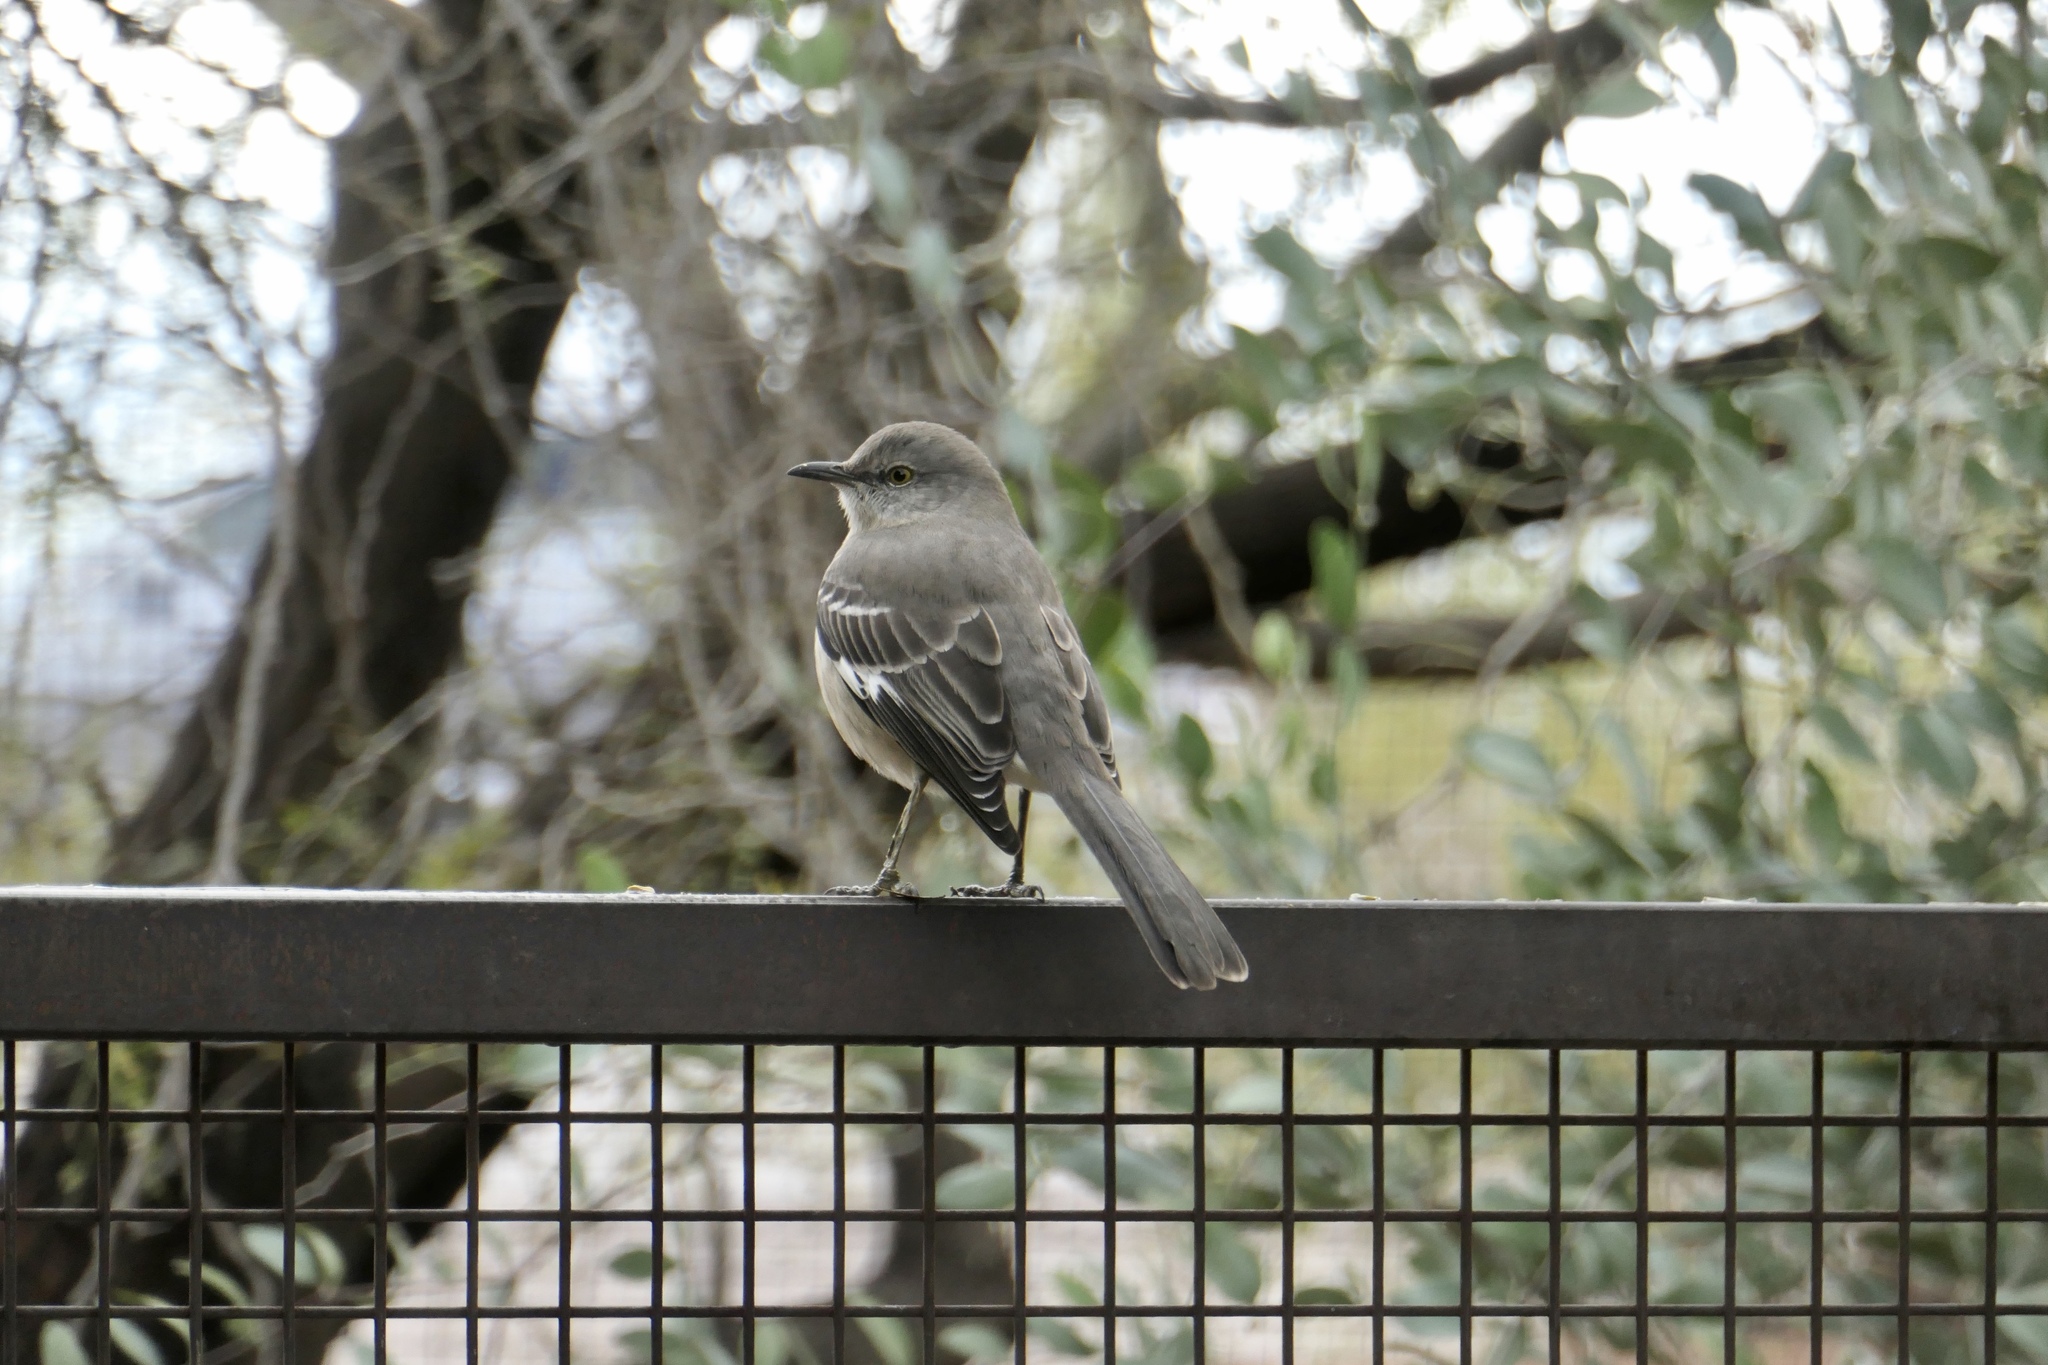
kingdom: Animalia
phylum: Chordata
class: Aves
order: Passeriformes
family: Mimidae
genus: Mimus
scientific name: Mimus polyglottos
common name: Northern mockingbird
